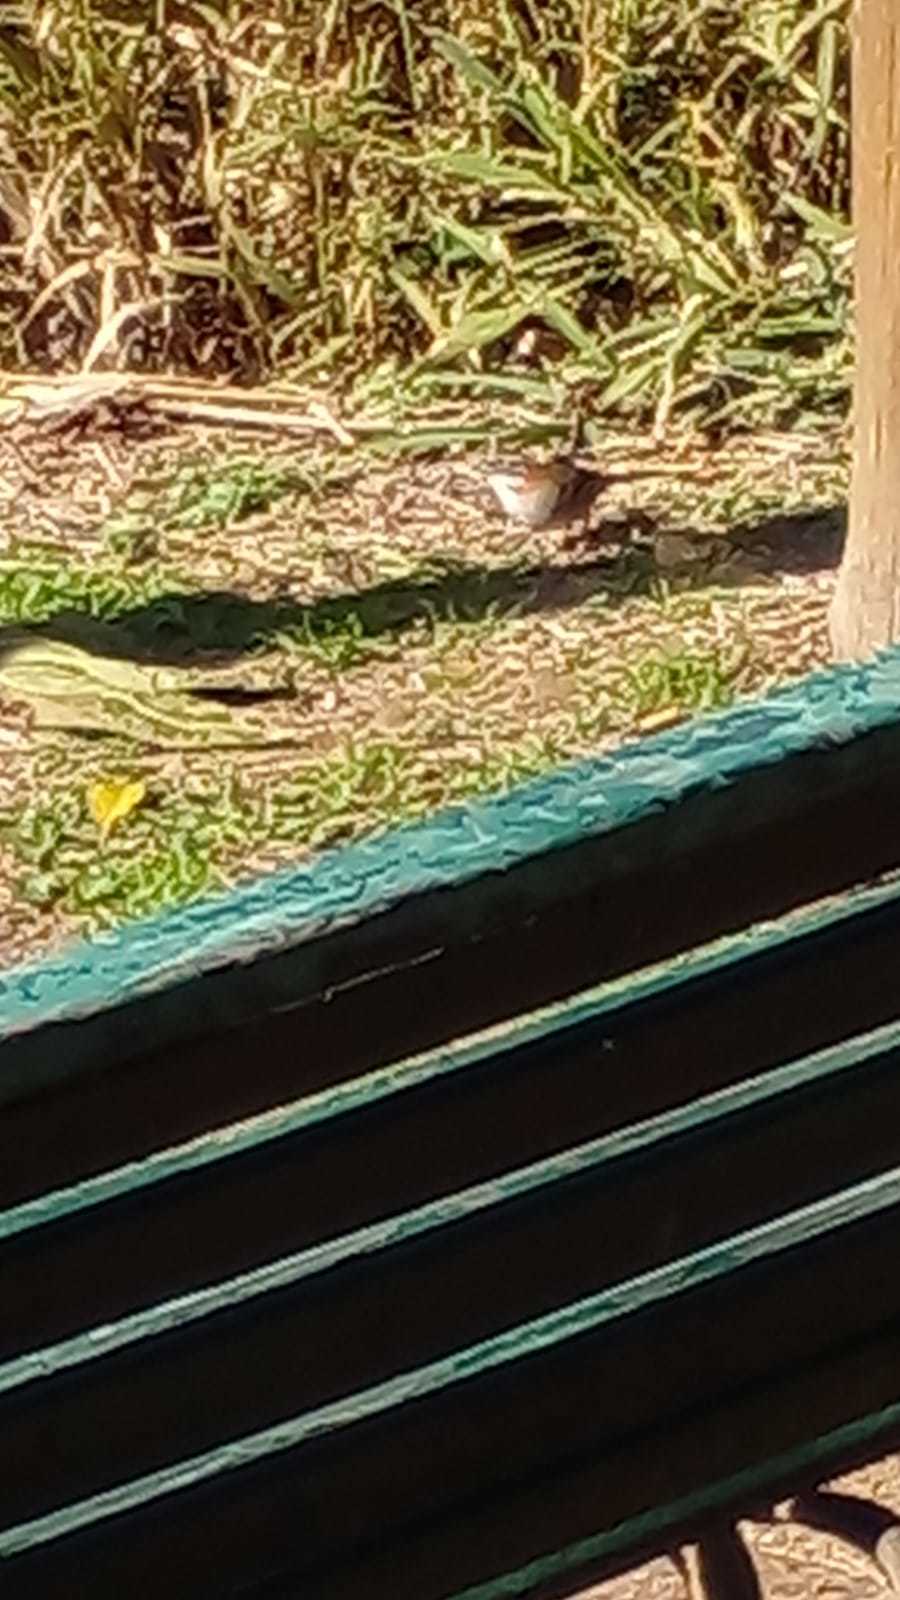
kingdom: Animalia
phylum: Chordata
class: Aves
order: Passeriformes
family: Passerellidae
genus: Zonotrichia
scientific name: Zonotrichia capensis
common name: Rufous-collared sparrow
